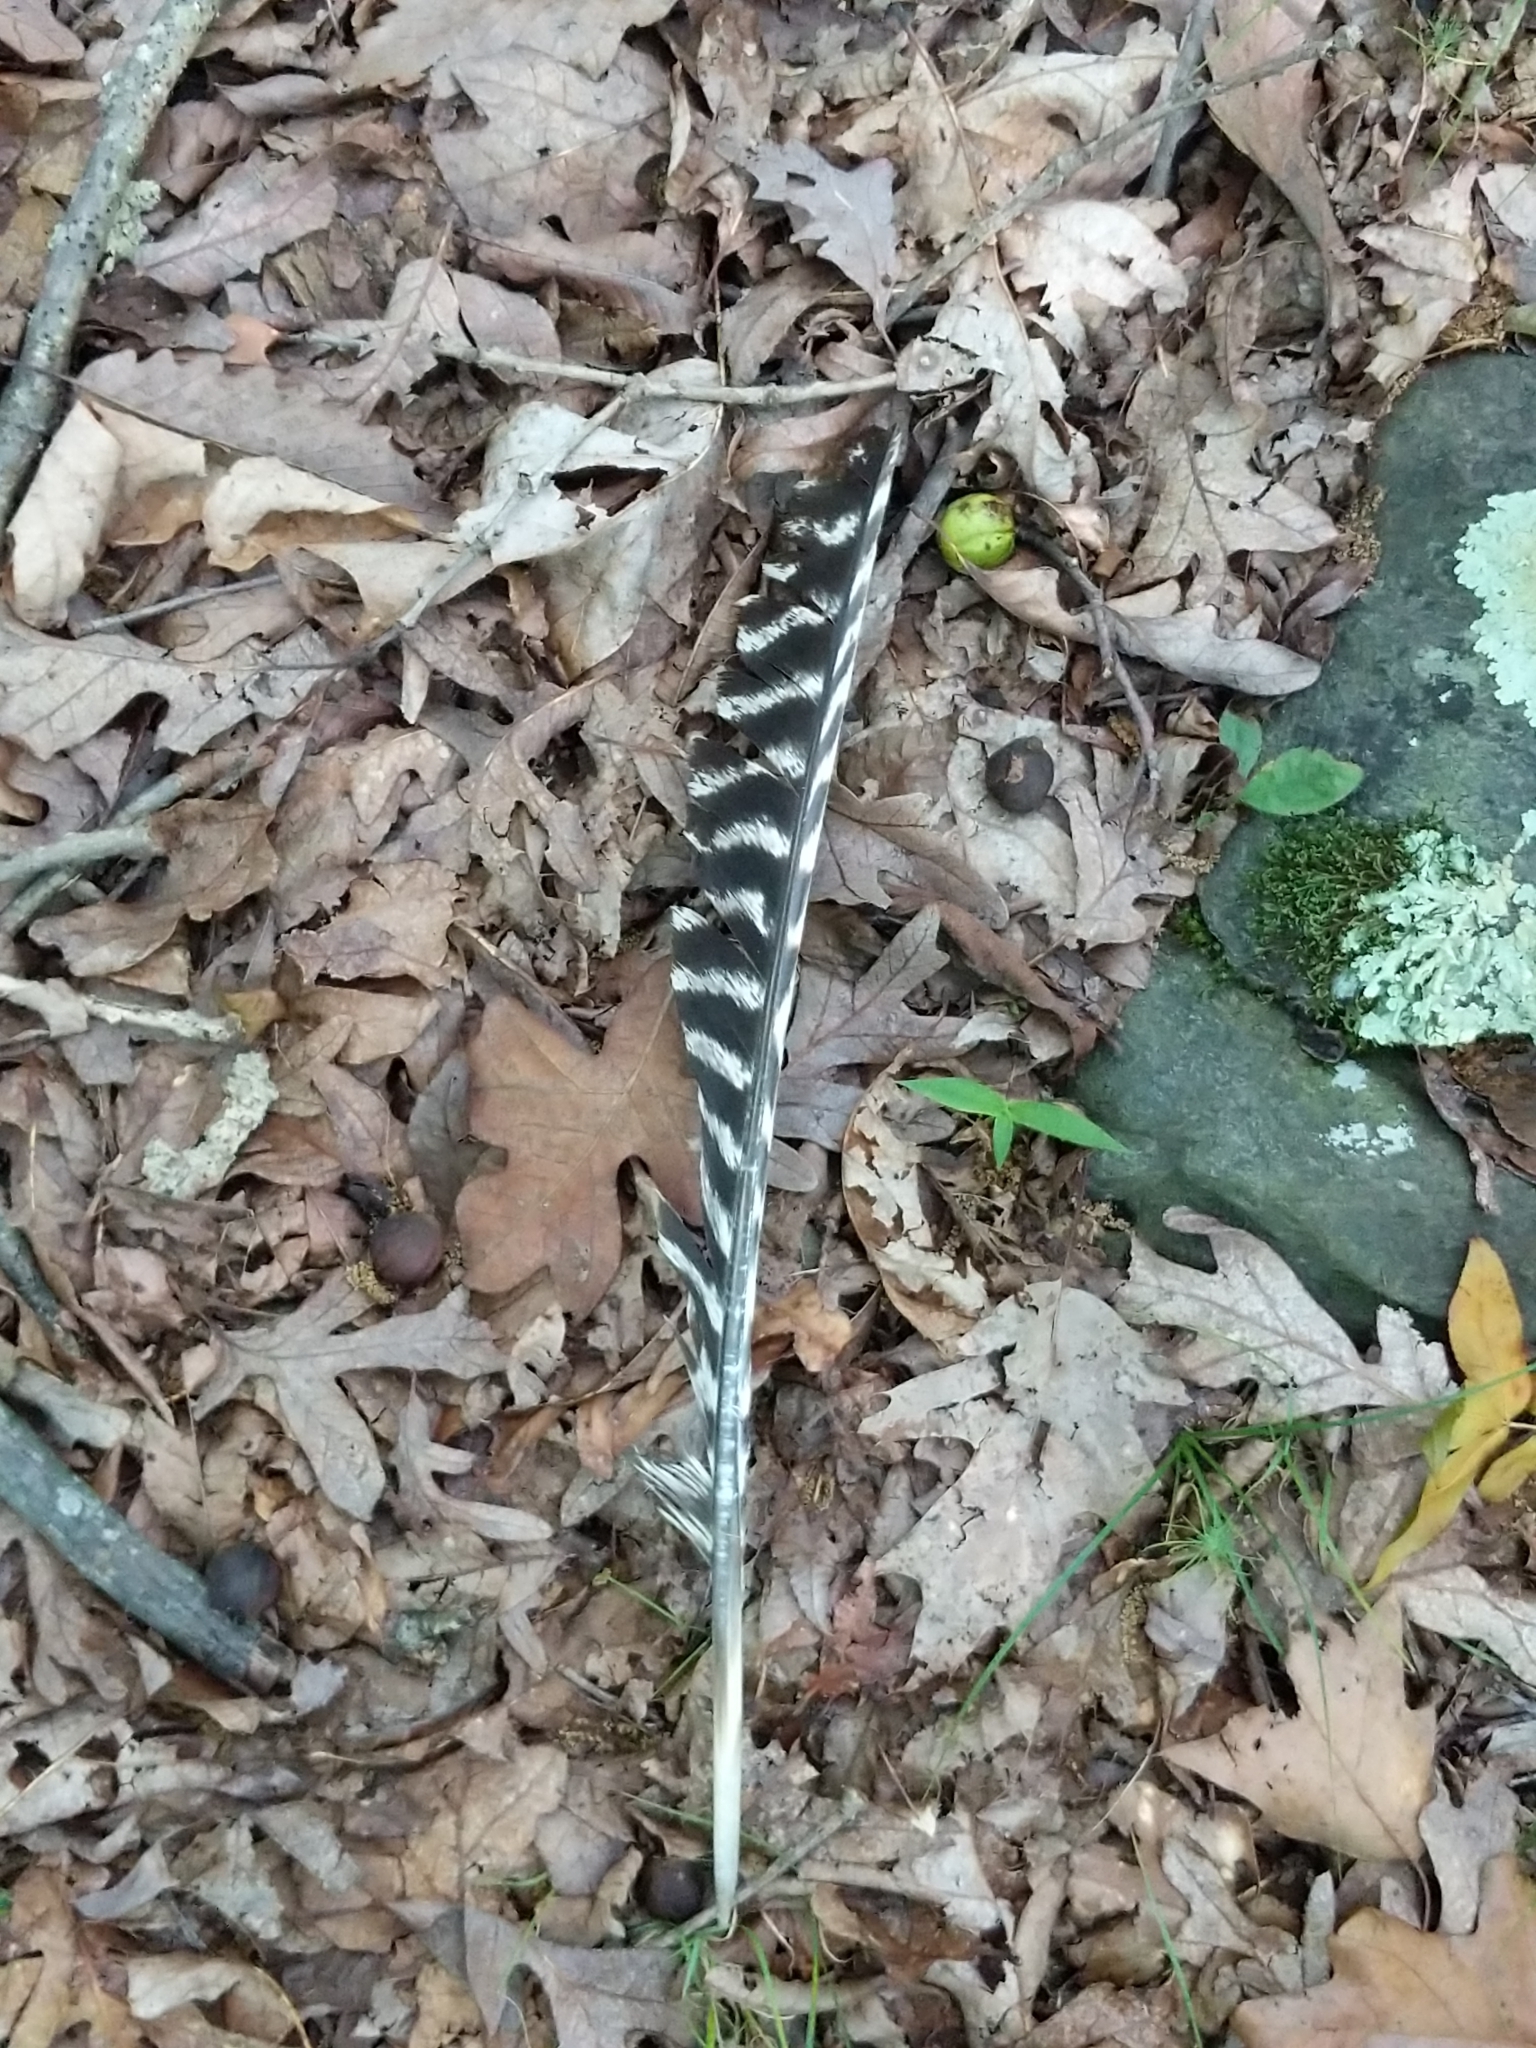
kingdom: Animalia
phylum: Chordata
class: Aves
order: Galliformes
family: Phasianidae
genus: Meleagris
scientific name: Meleagris gallopavo
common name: Wild turkey
